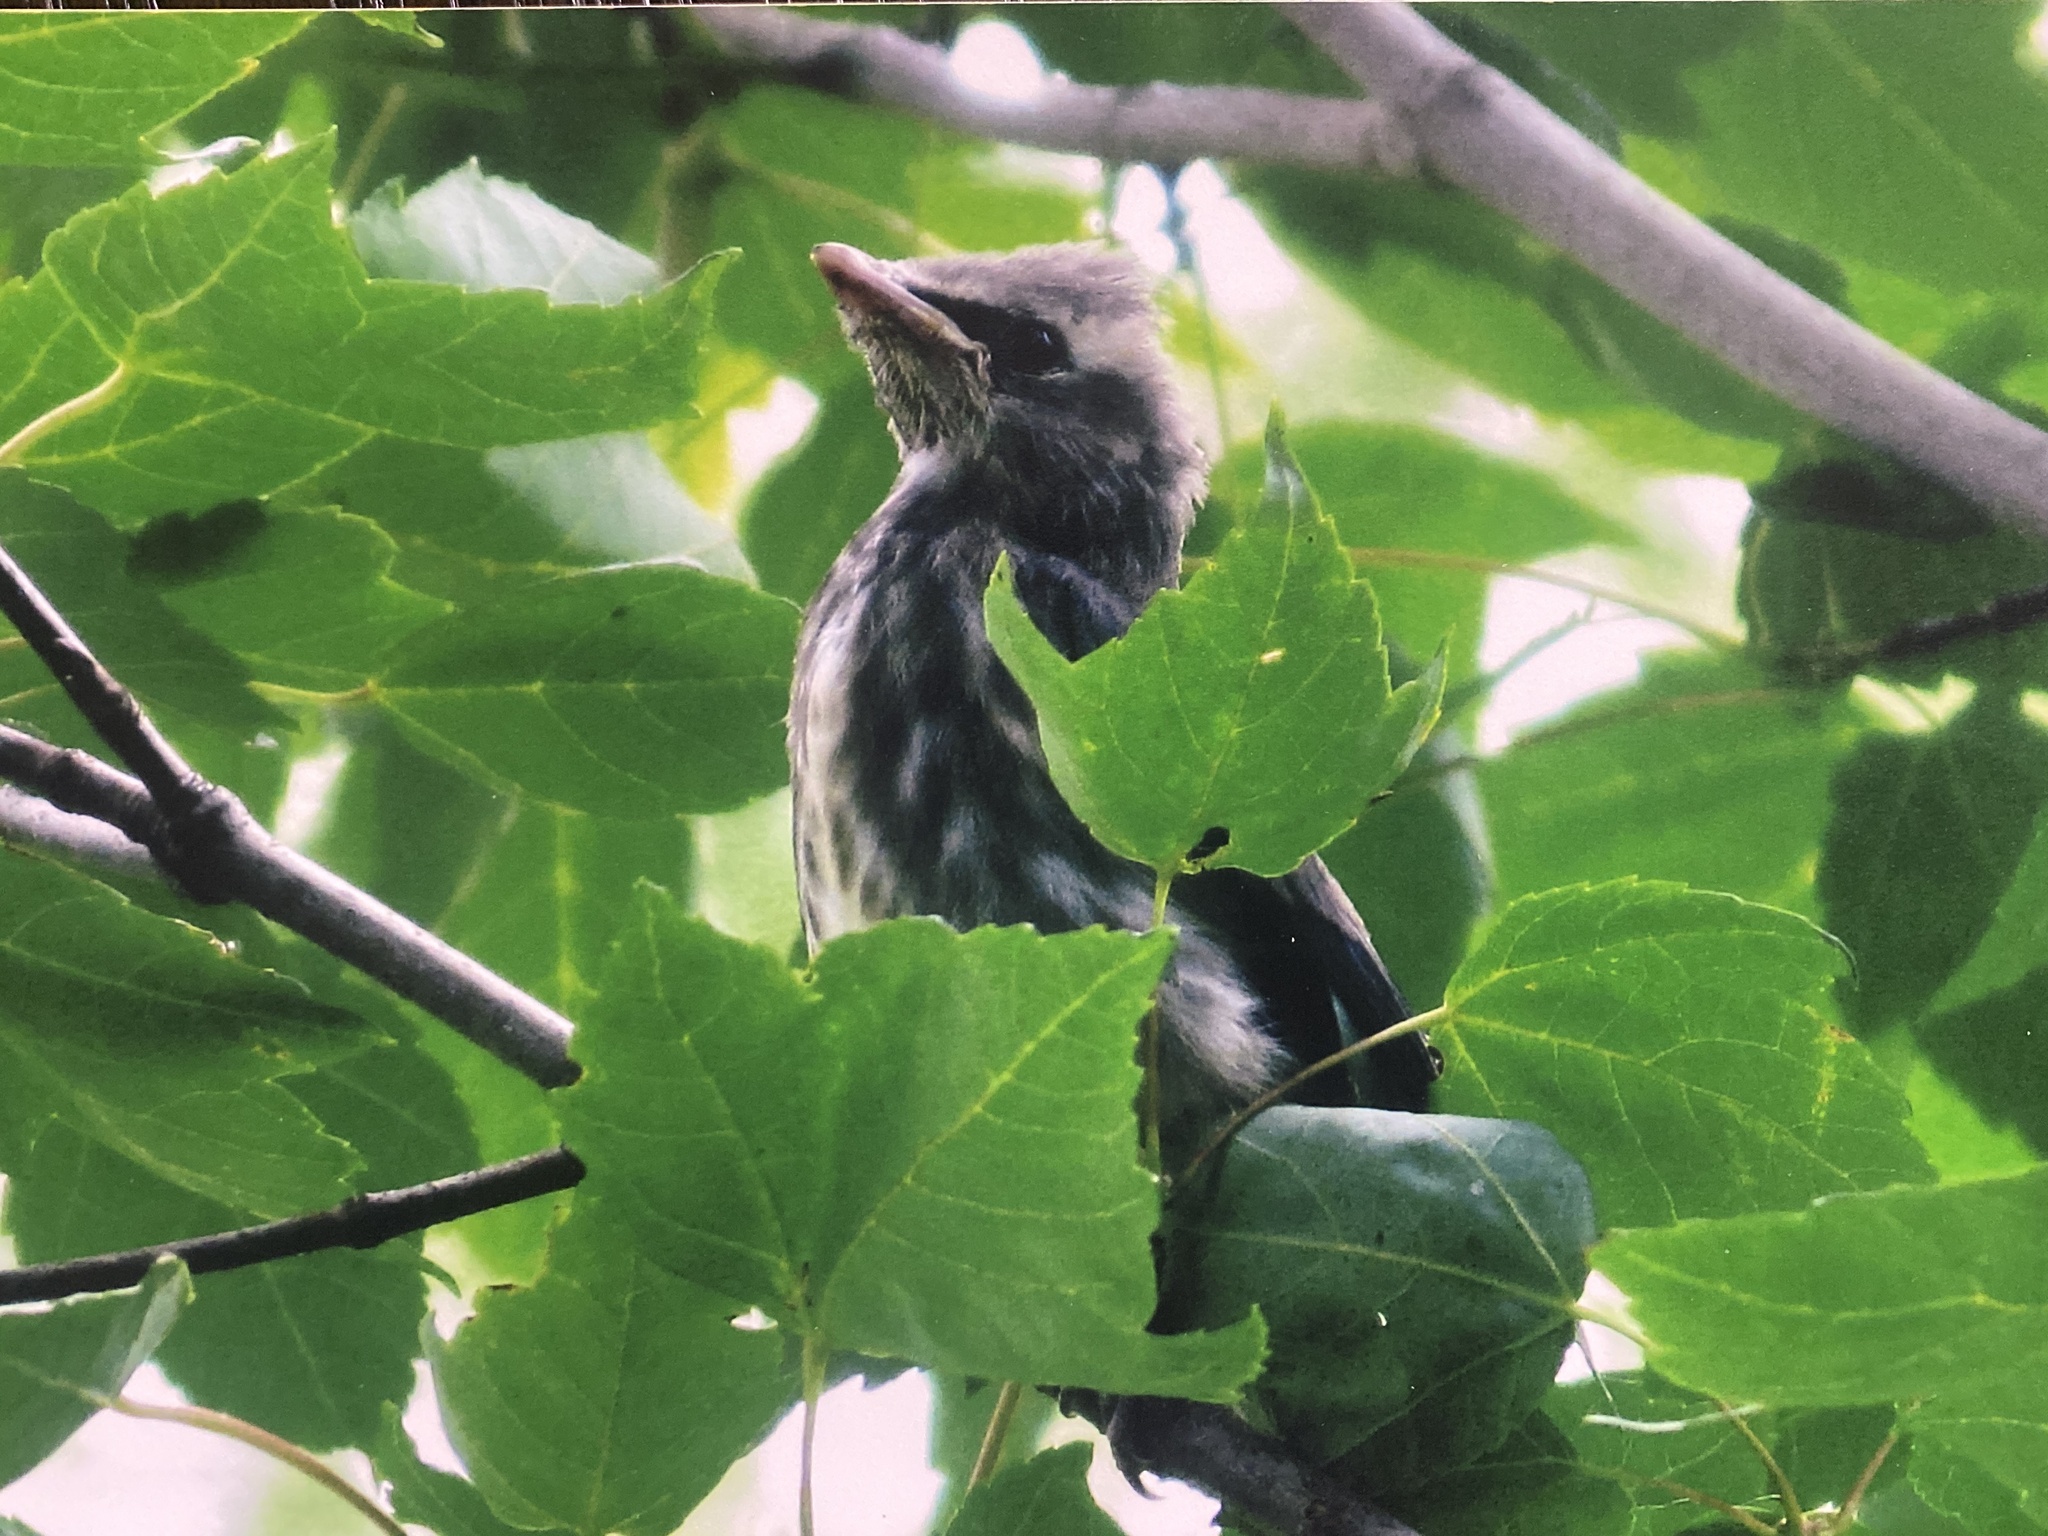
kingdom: Animalia
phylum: Chordata
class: Aves
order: Passeriformes
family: Bombycillidae
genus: Bombycilla
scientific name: Bombycilla cedrorum
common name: Cedar waxwing
